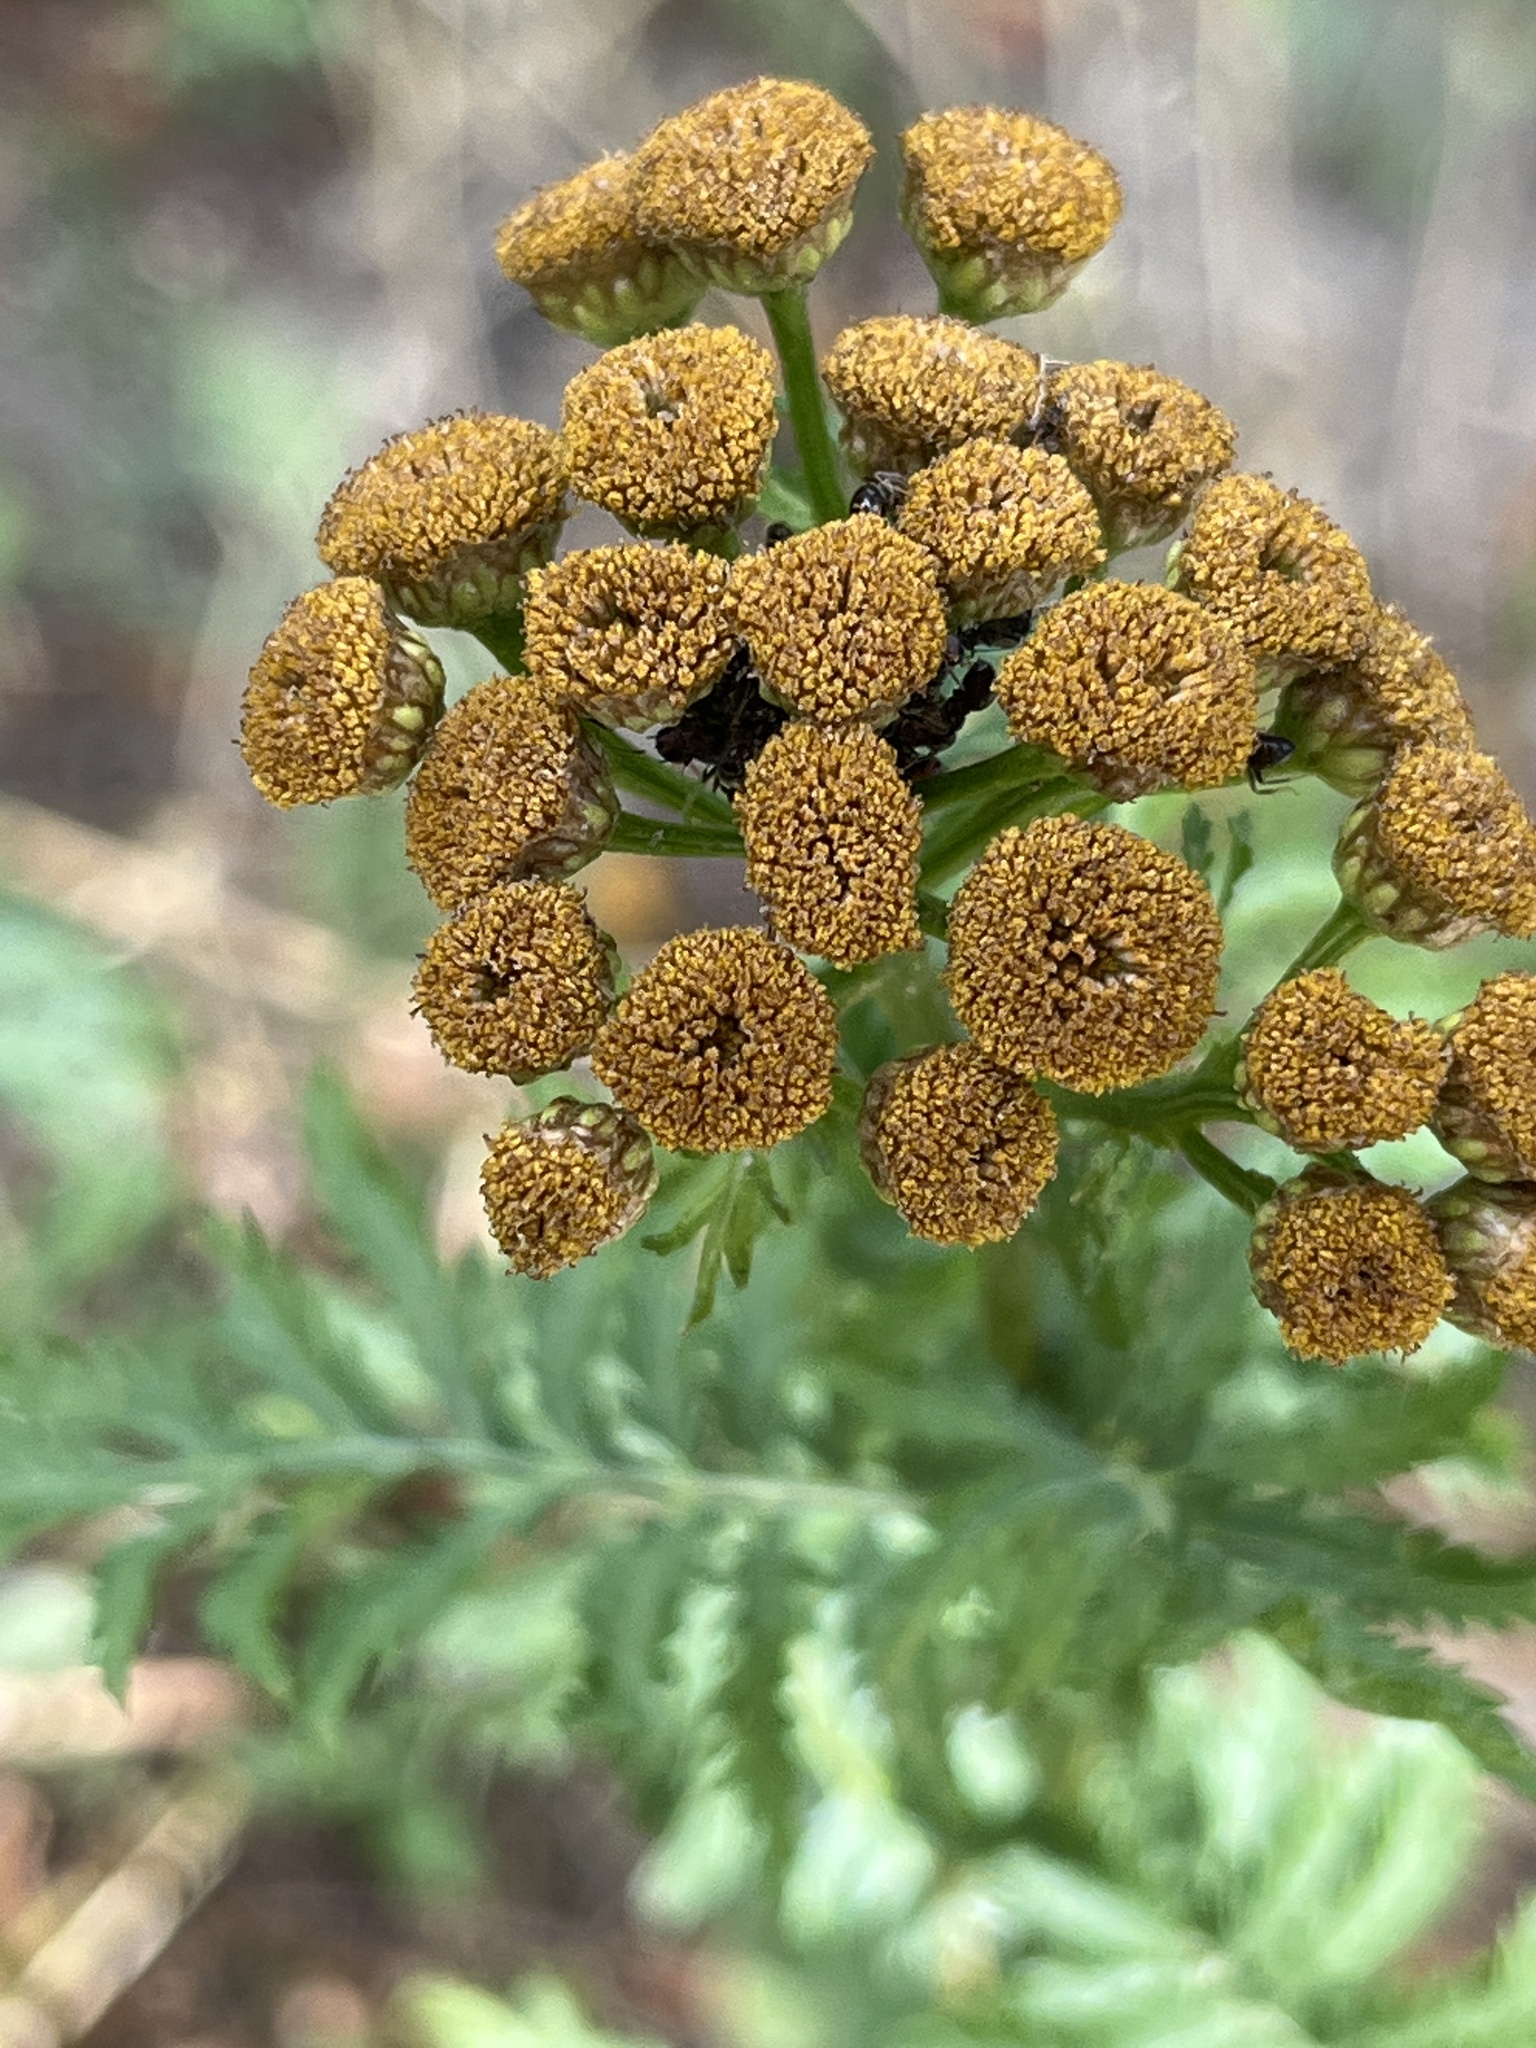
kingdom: Plantae
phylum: Tracheophyta
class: Magnoliopsida
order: Asterales
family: Asteraceae
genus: Tanacetum
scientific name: Tanacetum vulgare
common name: Common tansy
